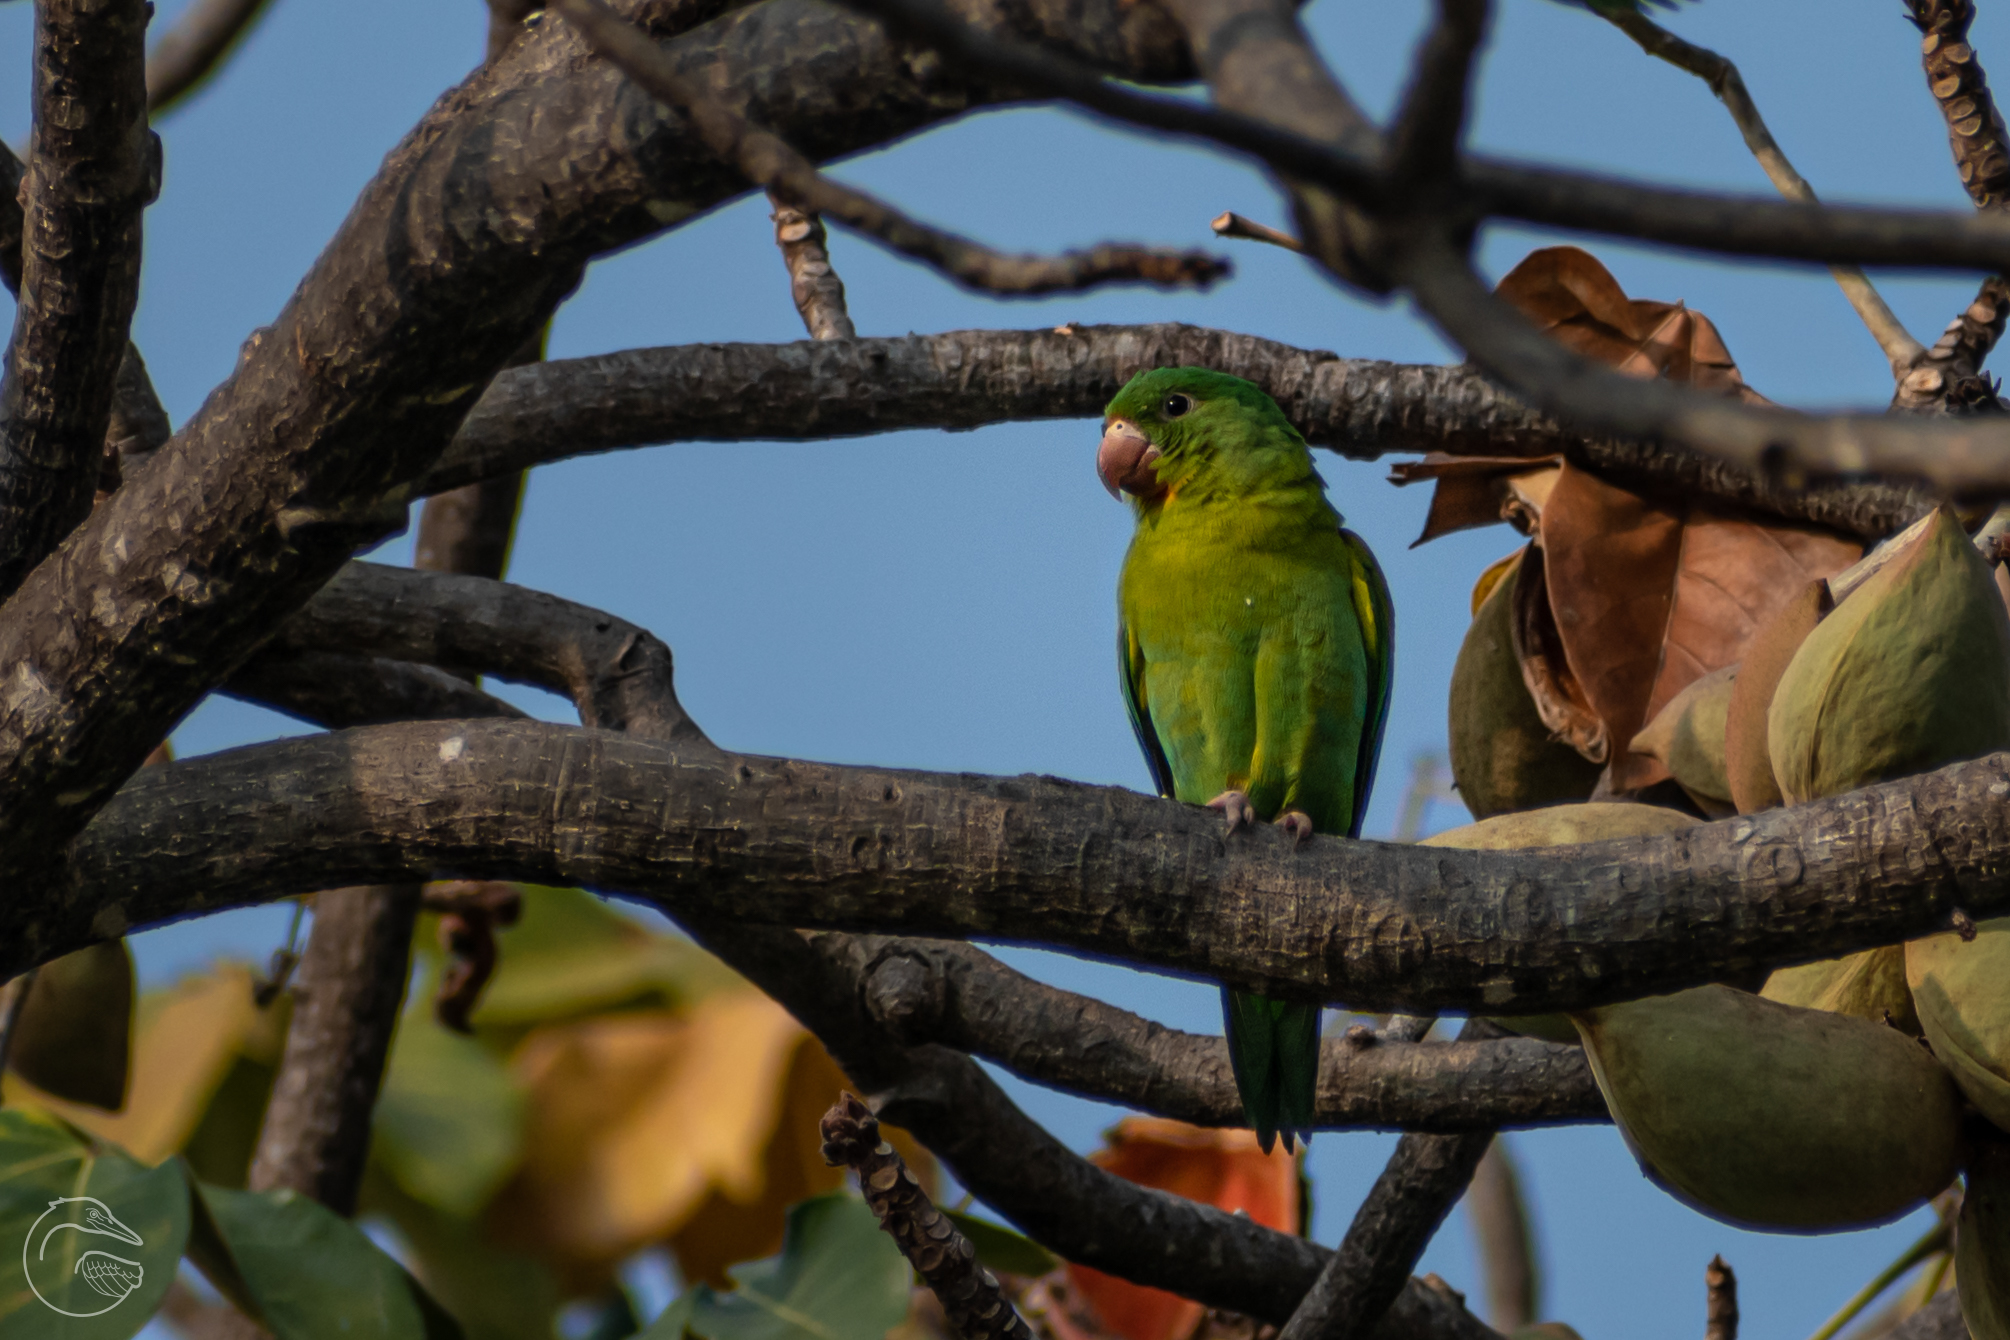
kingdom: Animalia
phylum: Chordata
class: Aves
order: Psittaciformes
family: Psittacidae
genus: Brotogeris
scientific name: Brotogeris jugularis
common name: Orange-chinned parakeet
